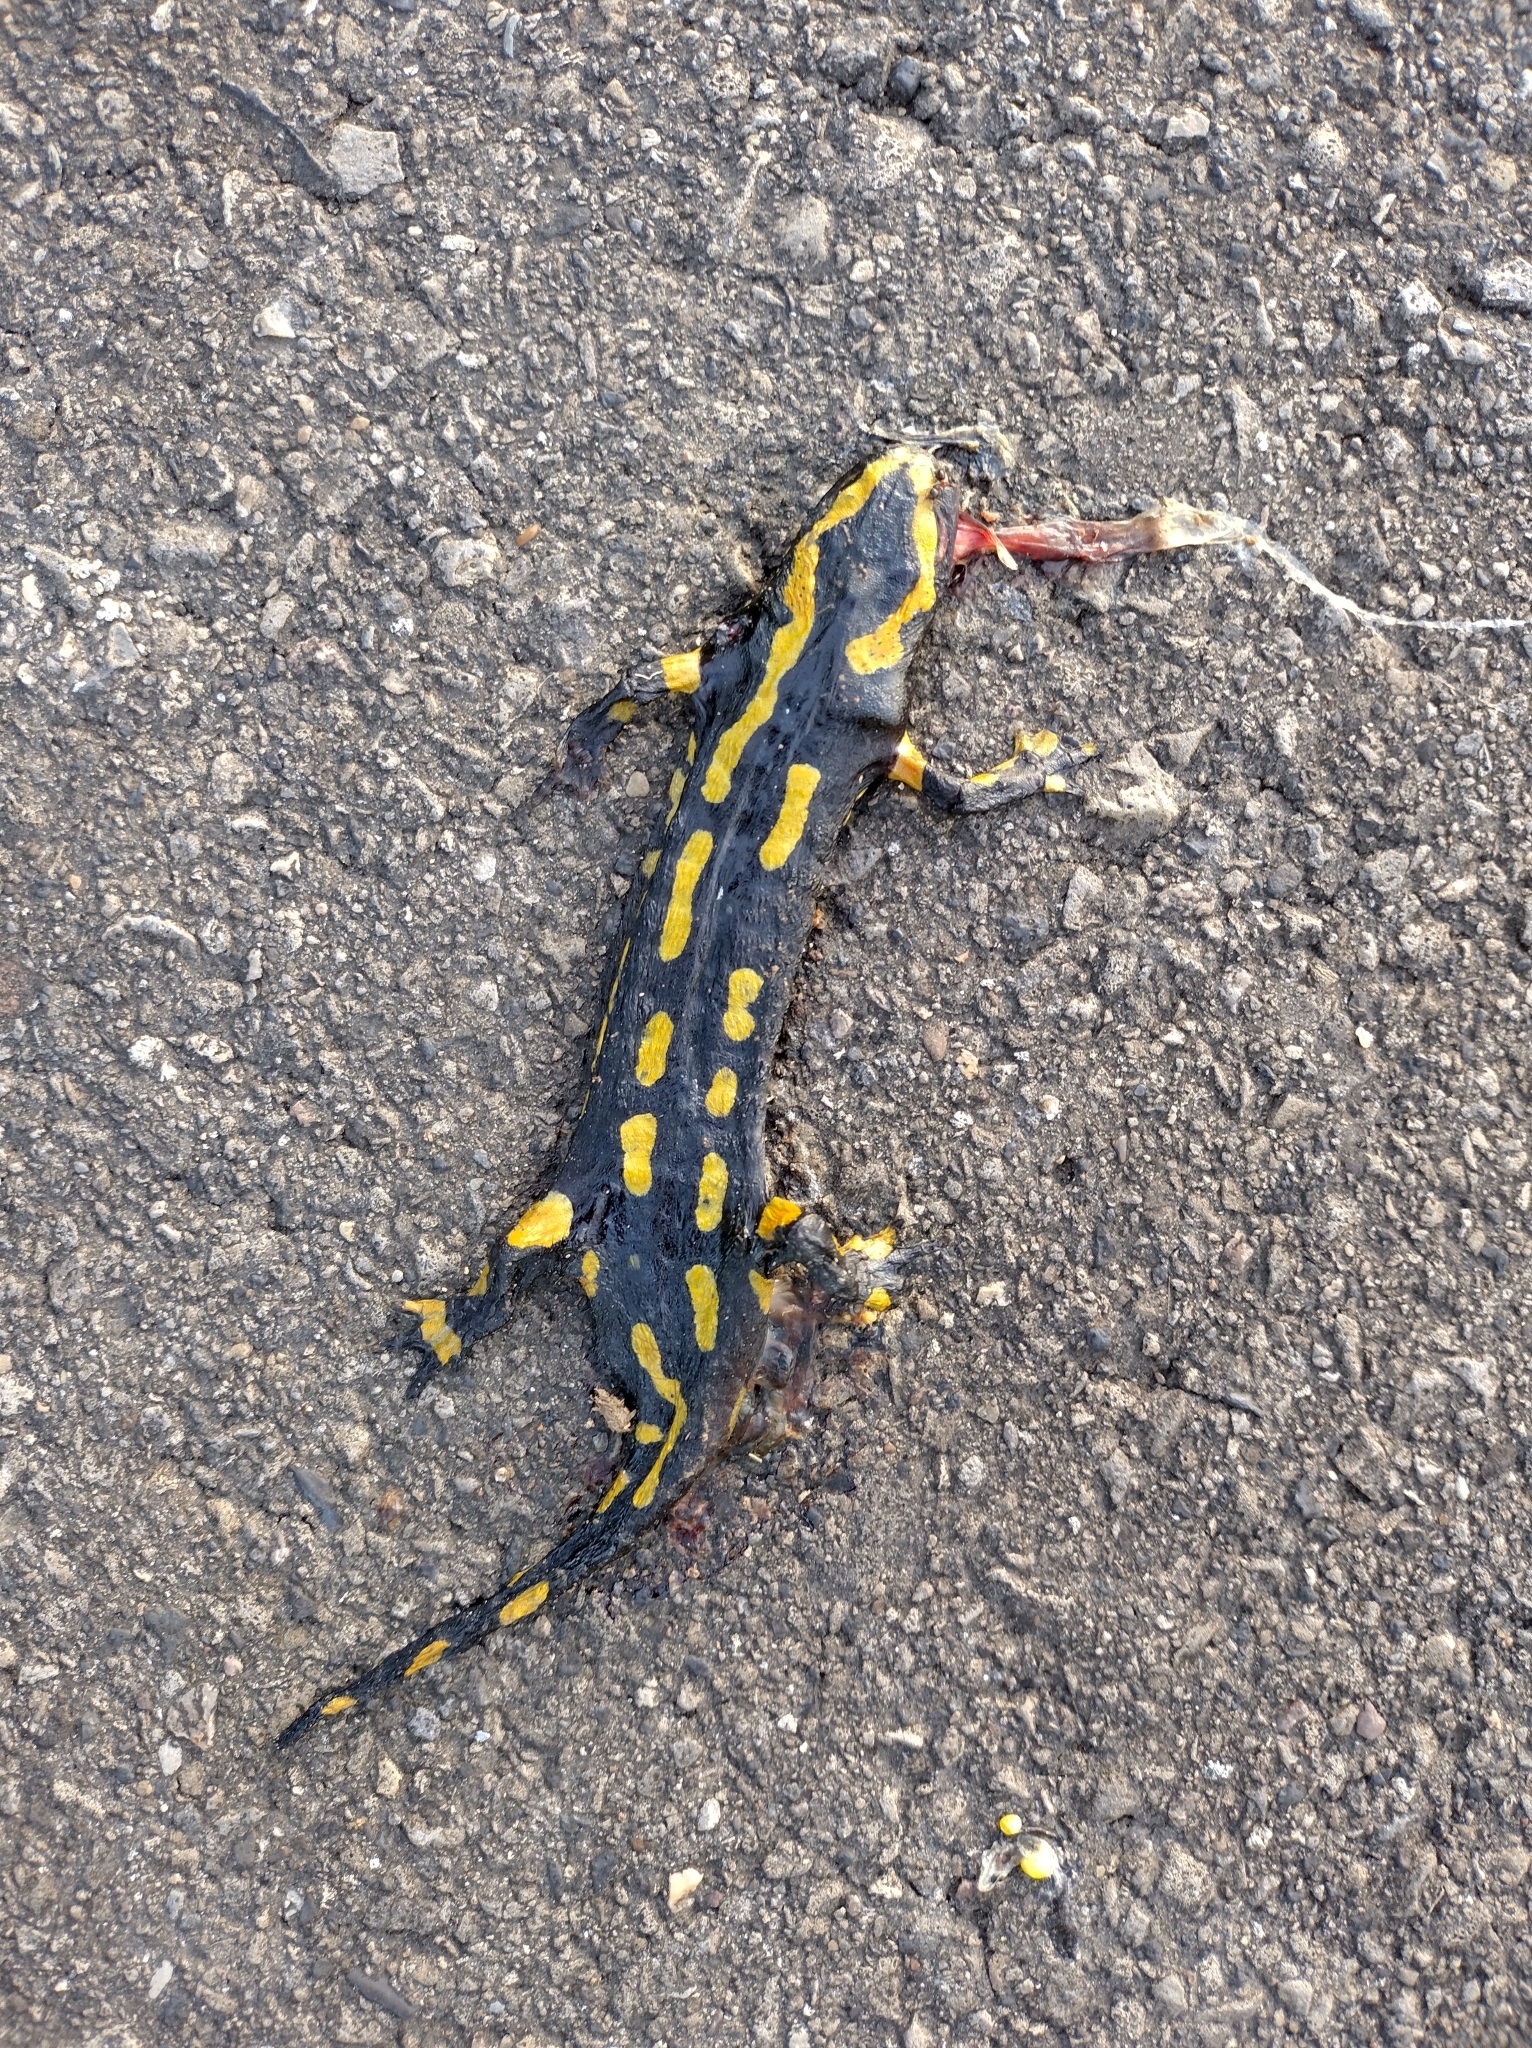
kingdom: Animalia
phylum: Chordata
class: Amphibia
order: Caudata
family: Salamandridae
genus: Salamandra
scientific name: Salamandra salamandra
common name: Fire salamander
